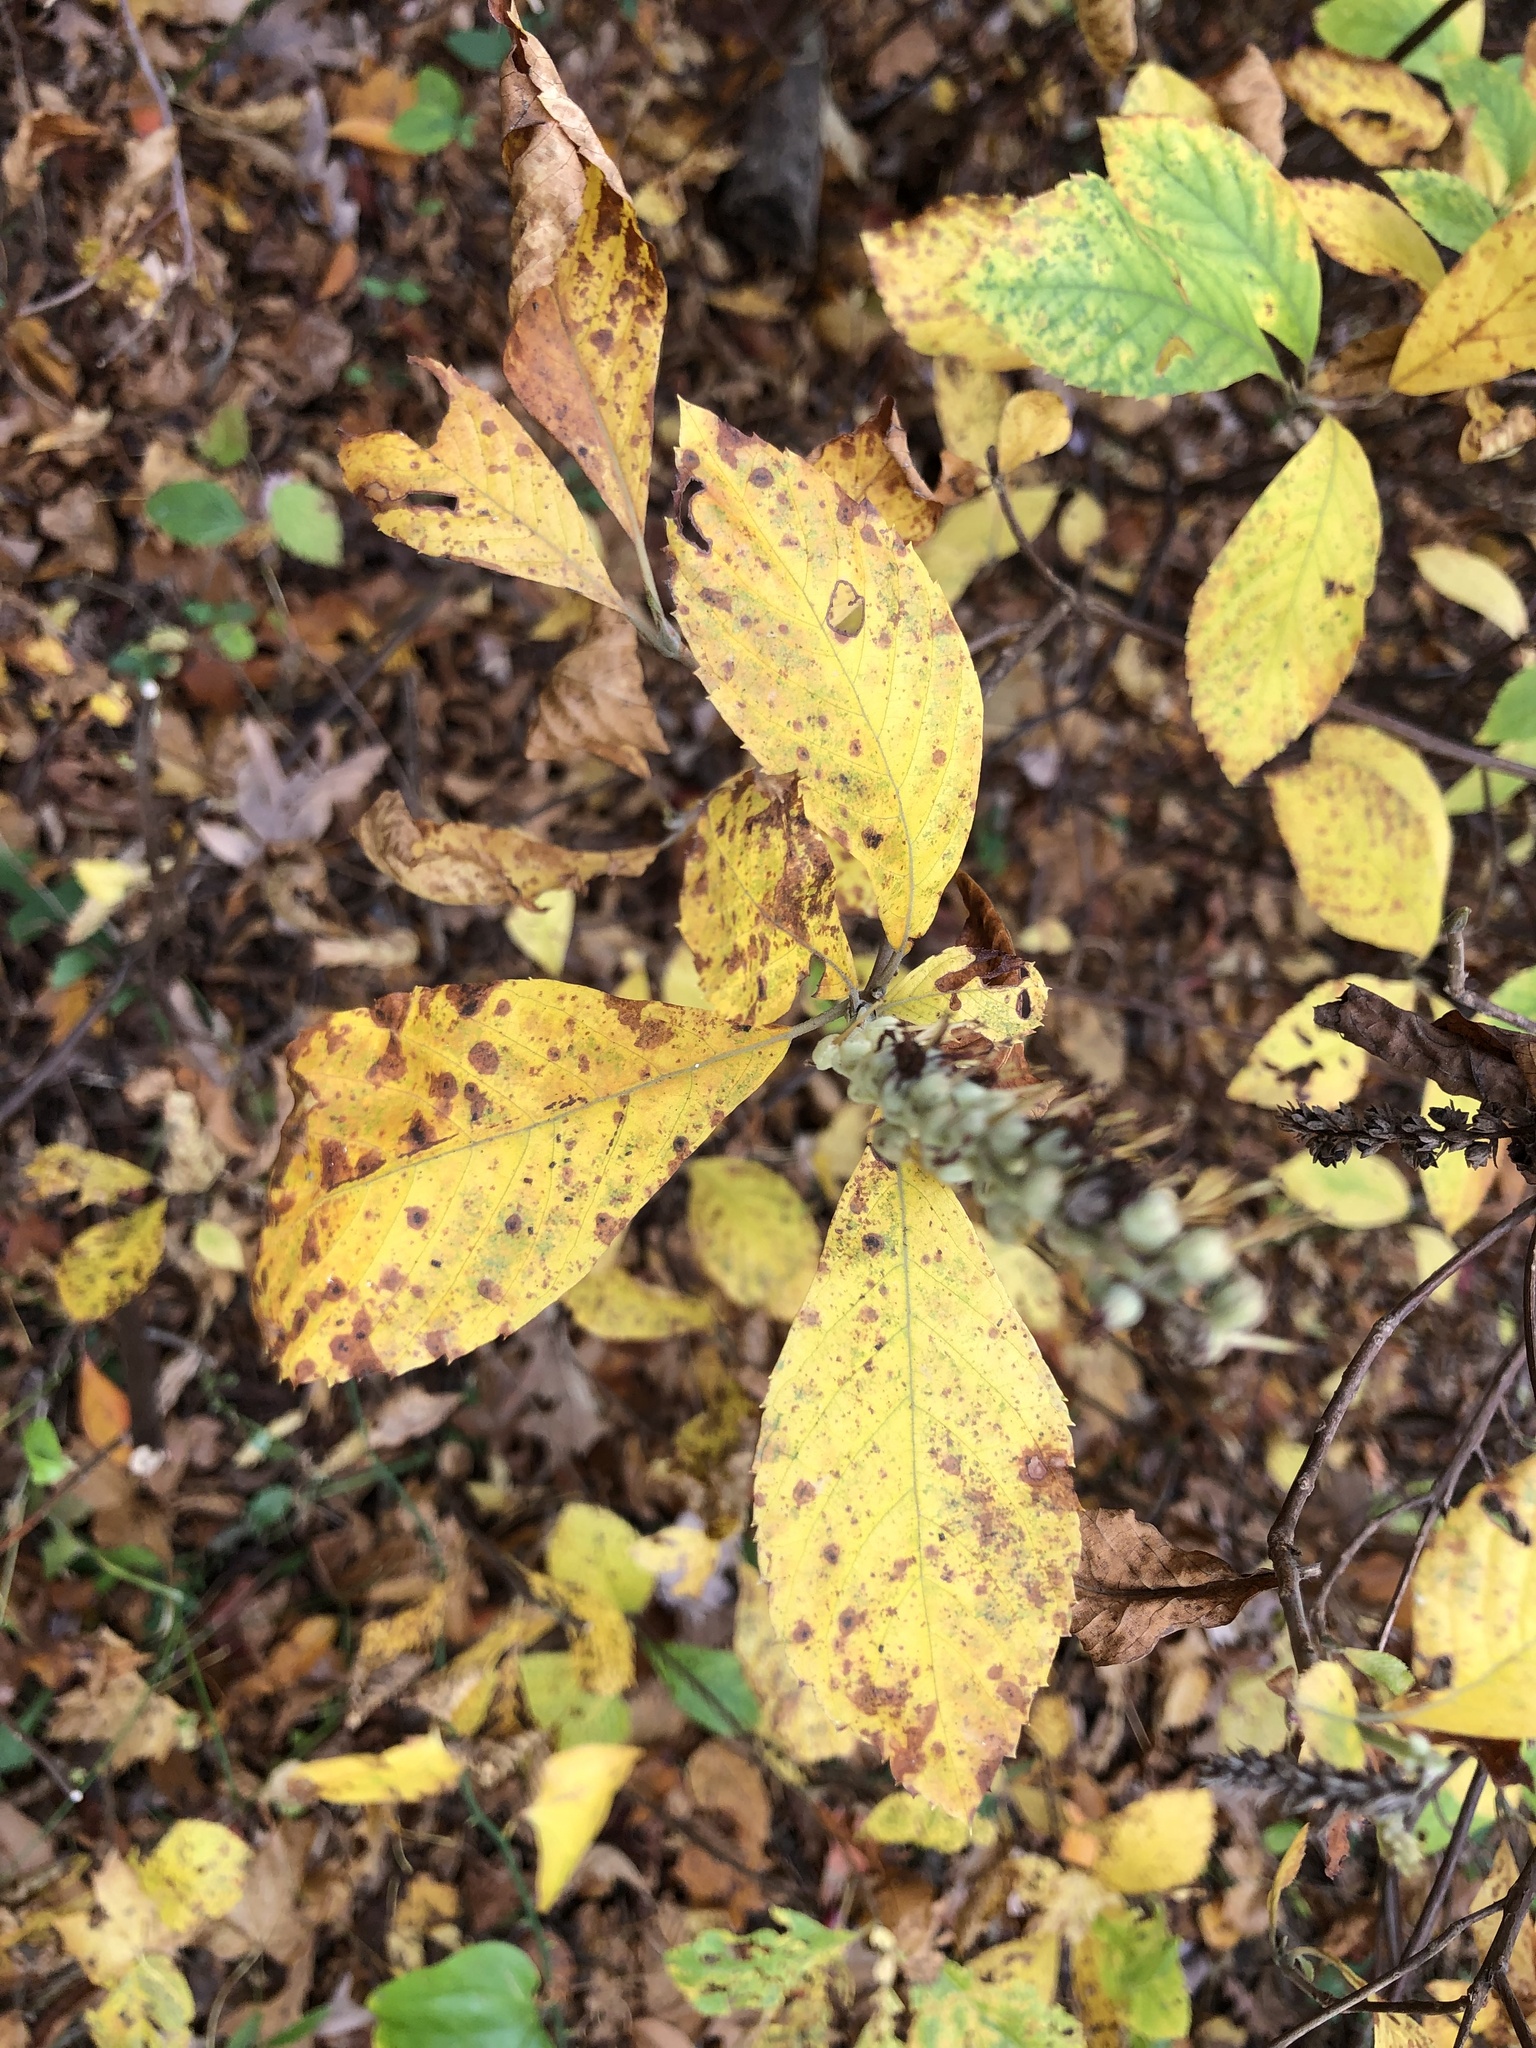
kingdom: Plantae
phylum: Tracheophyta
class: Magnoliopsida
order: Ericales
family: Clethraceae
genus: Clethra
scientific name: Clethra alnifolia
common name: Sweet pepperbush
